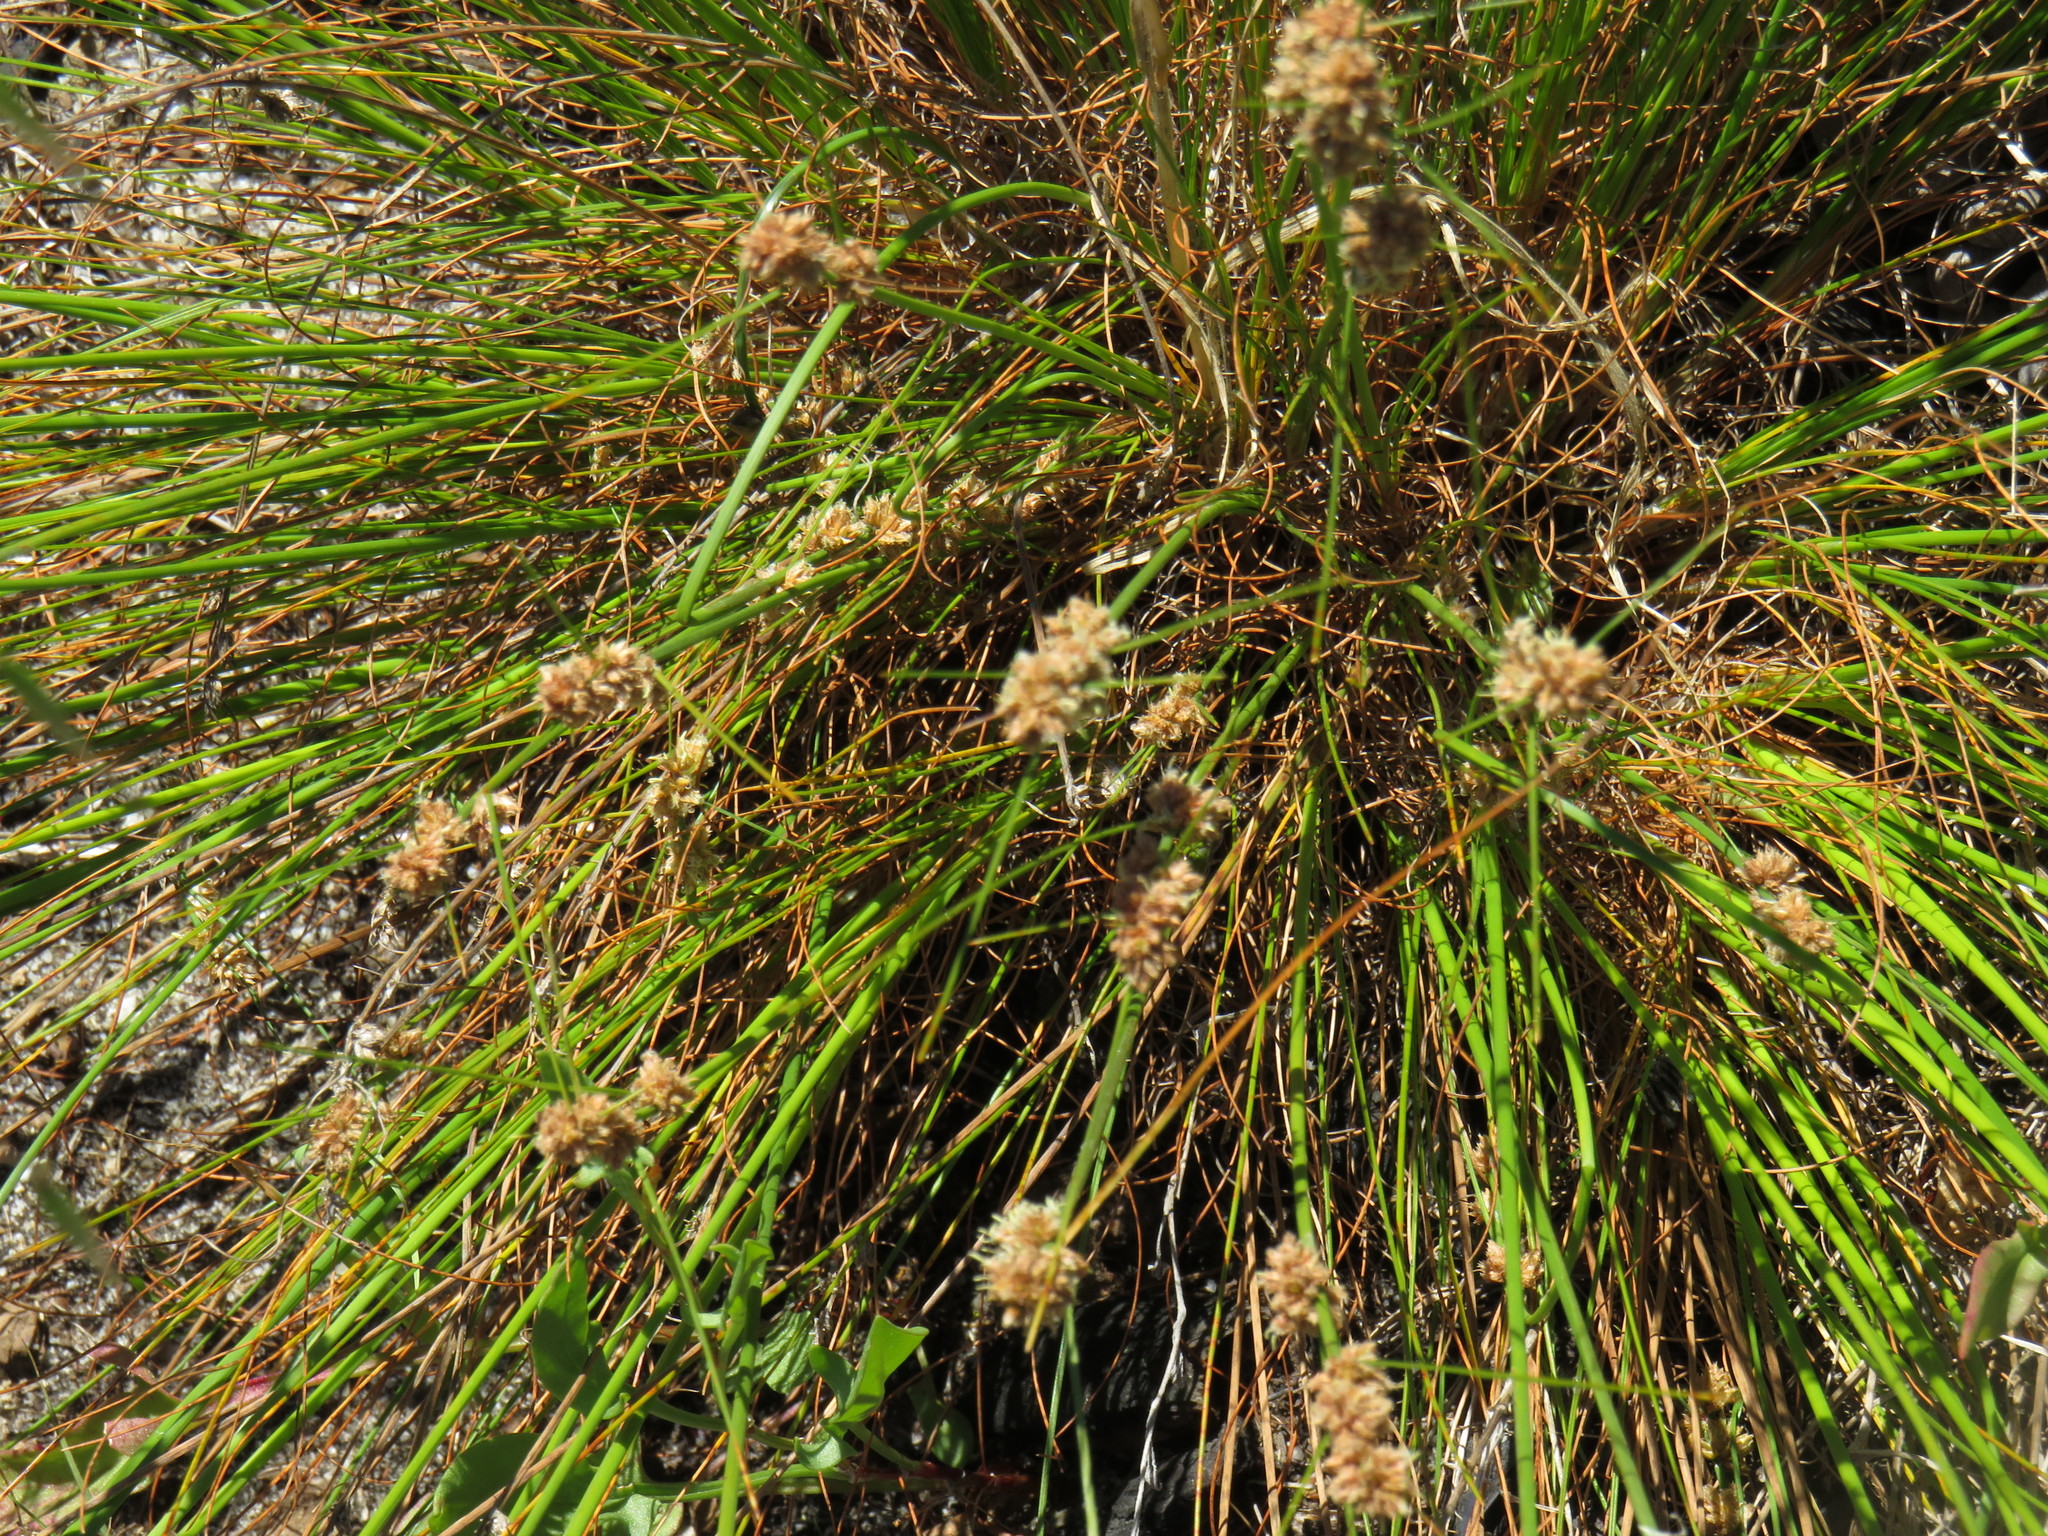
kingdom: Plantae
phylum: Tracheophyta
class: Liliopsida
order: Poales
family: Cyperaceae
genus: Ficinia
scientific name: Ficinia bulbosa
